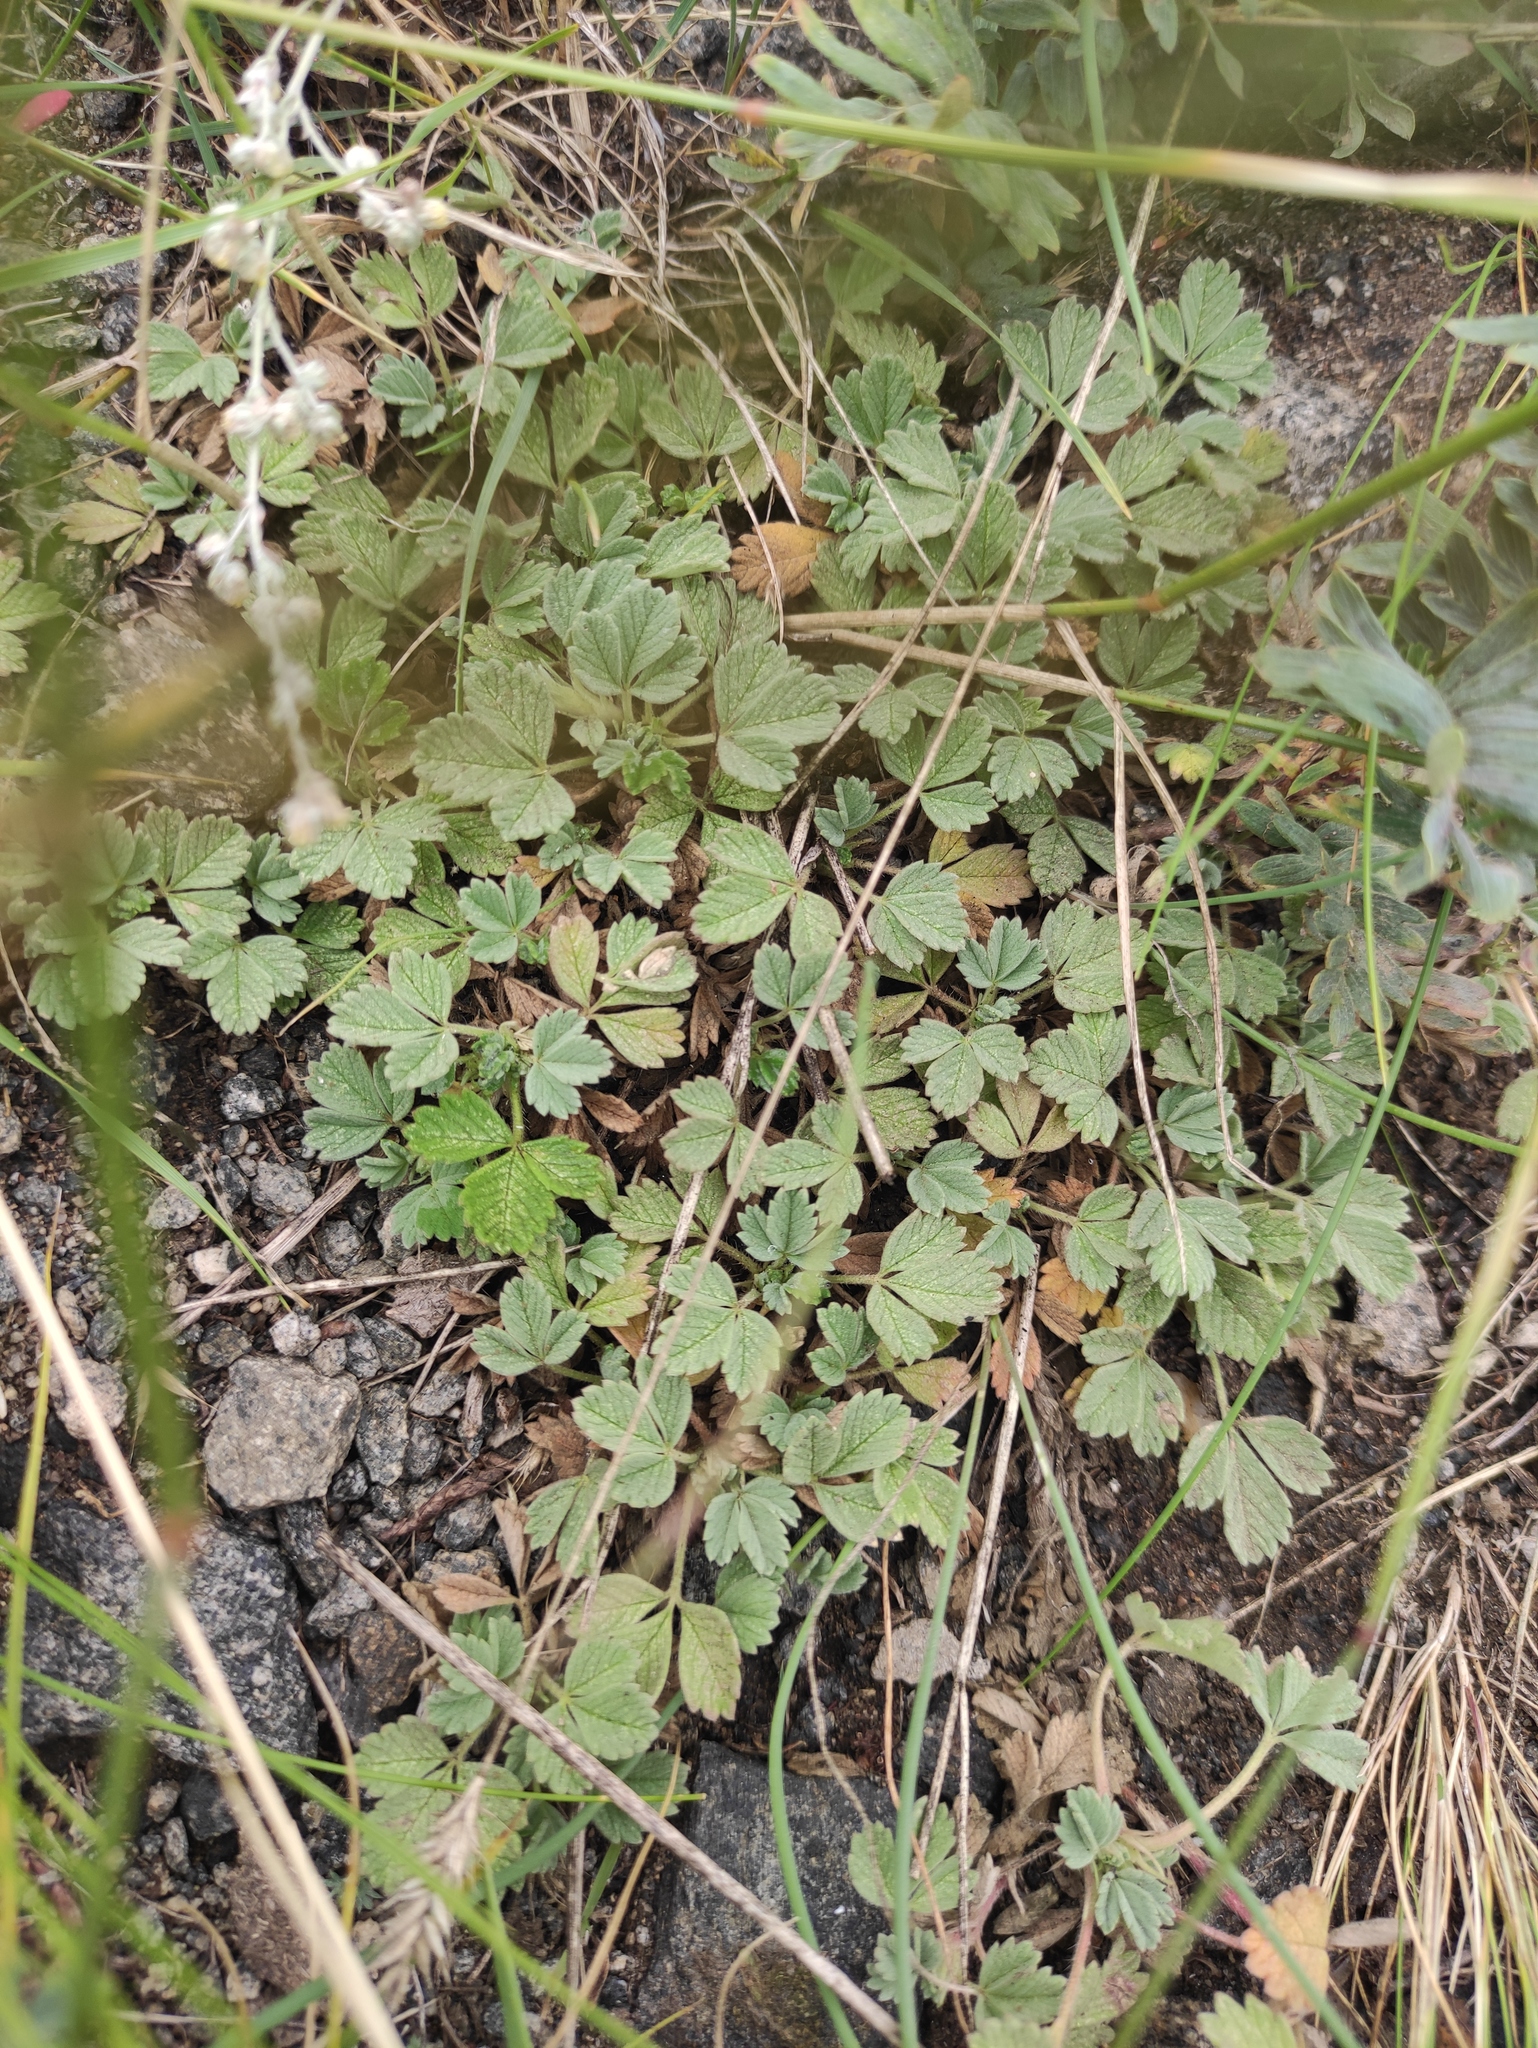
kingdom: Plantae
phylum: Tracheophyta
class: Magnoliopsida
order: Rosales
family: Rosaceae
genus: Potentilla
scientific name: Potentilla acaulis
